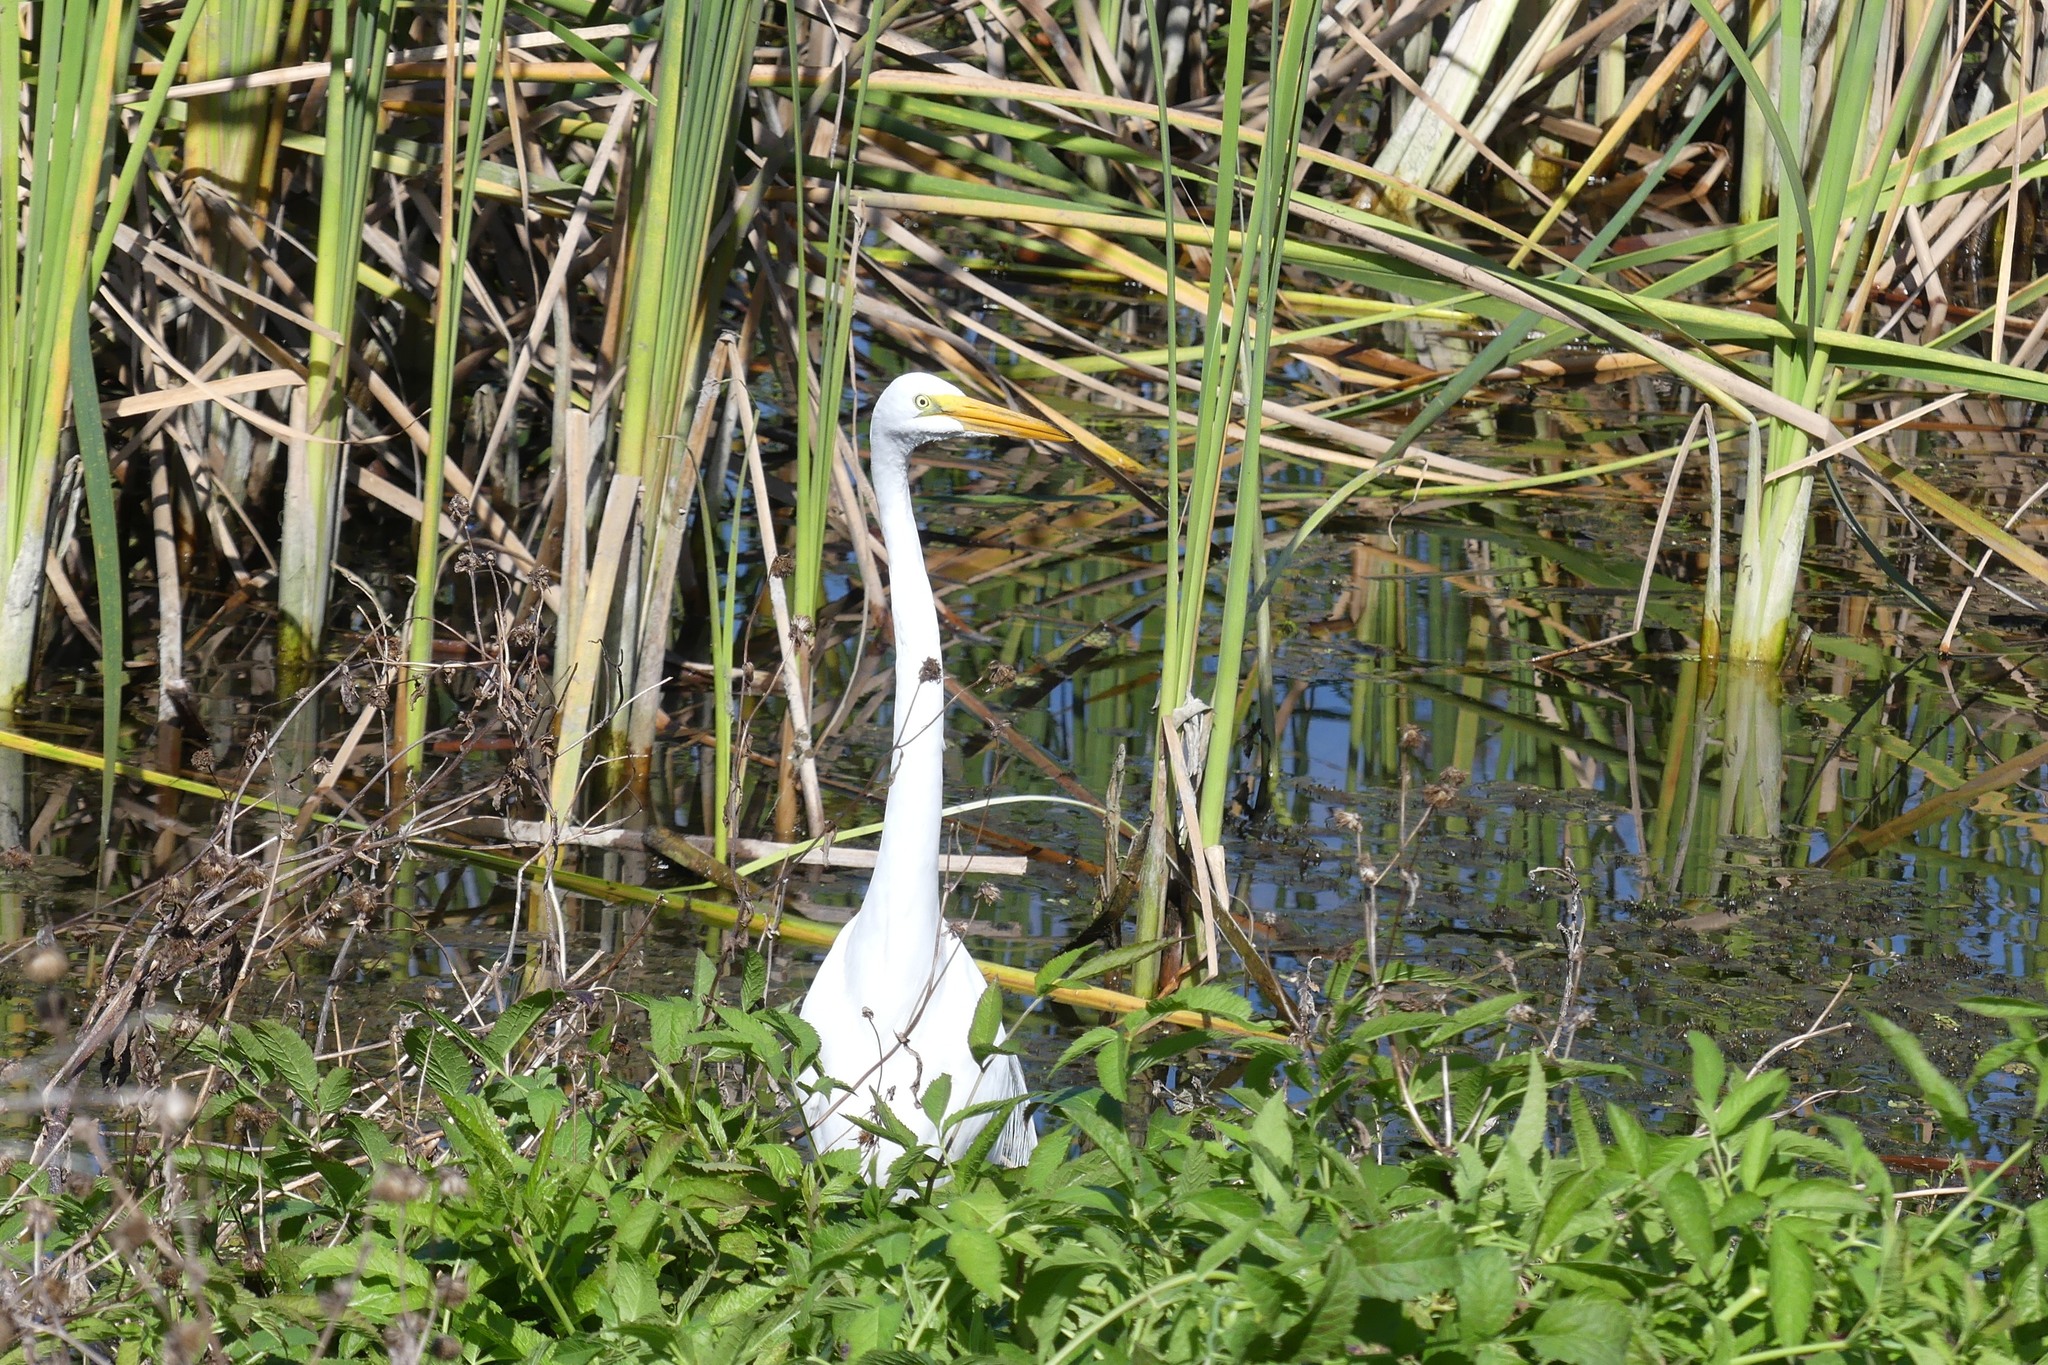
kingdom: Animalia
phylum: Chordata
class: Aves
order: Pelecaniformes
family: Ardeidae
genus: Ardea
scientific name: Ardea alba
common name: Great egret
